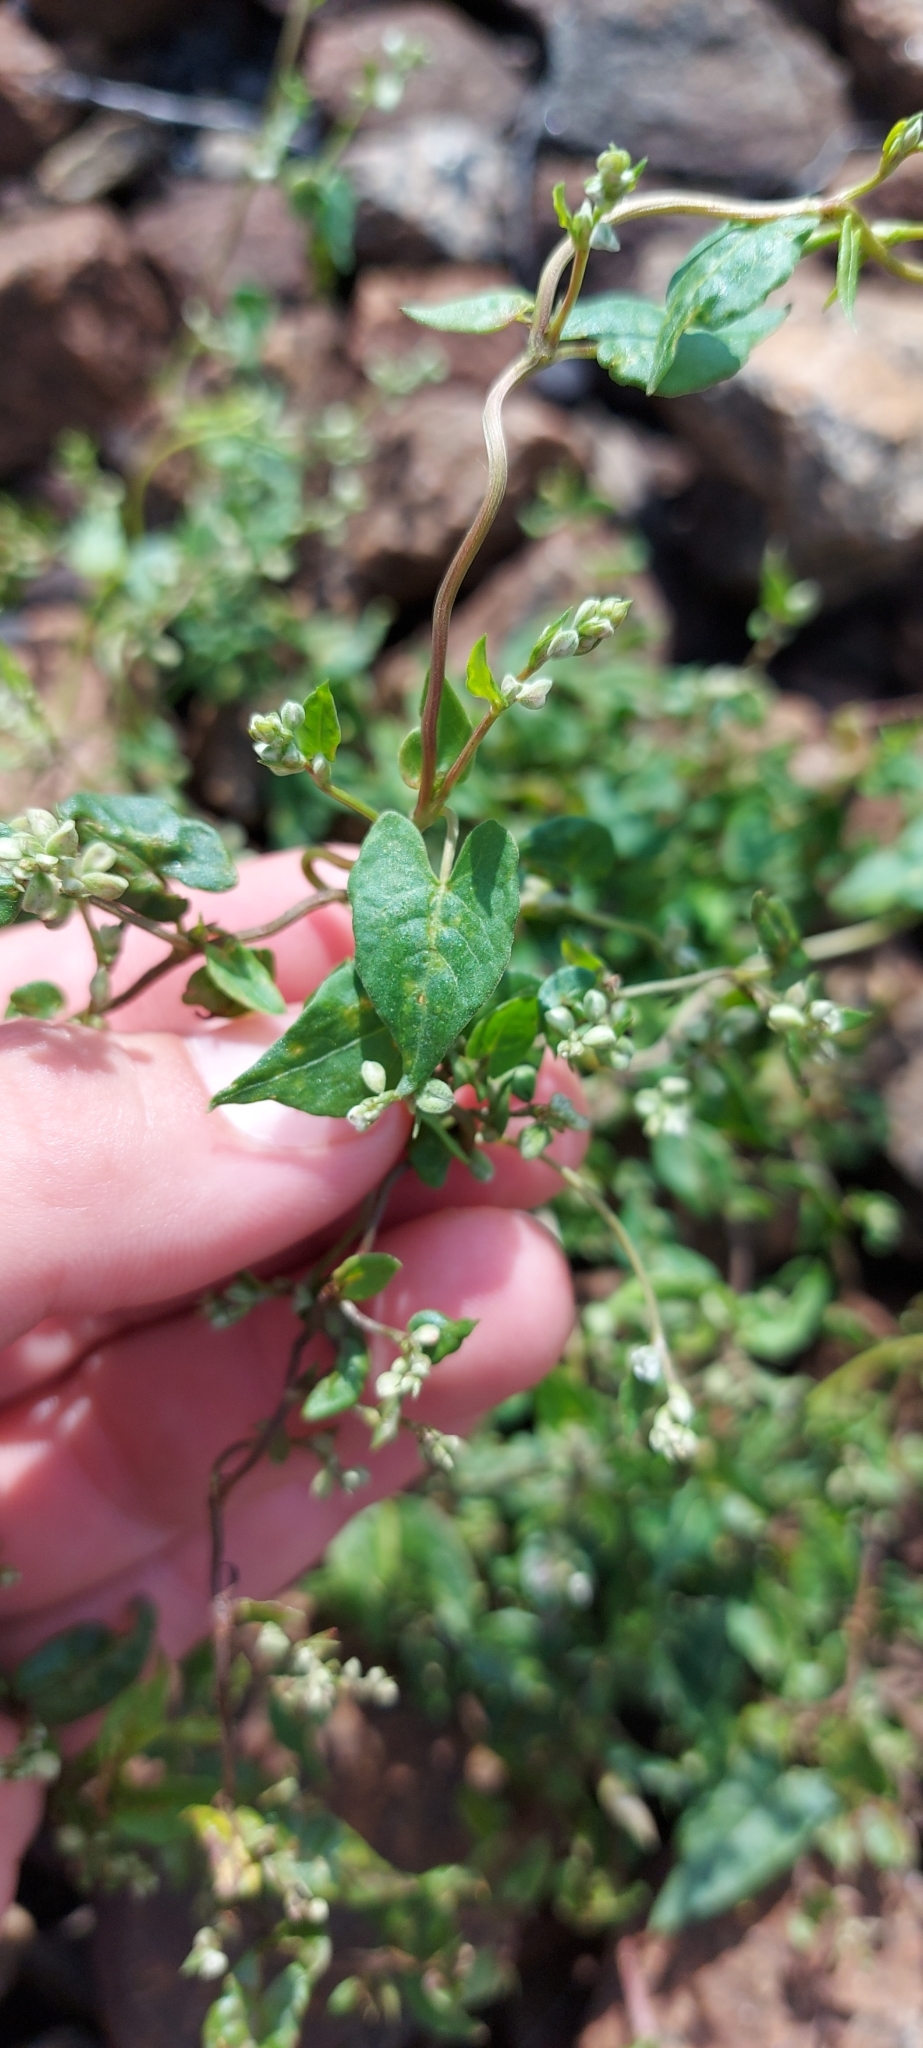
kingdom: Plantae
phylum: Tracheophyta
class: Magnoliopsida
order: Caryophyllales
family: Polygonaceae
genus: Fallopia
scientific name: Fallopia convolvulus
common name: Black bindweed
